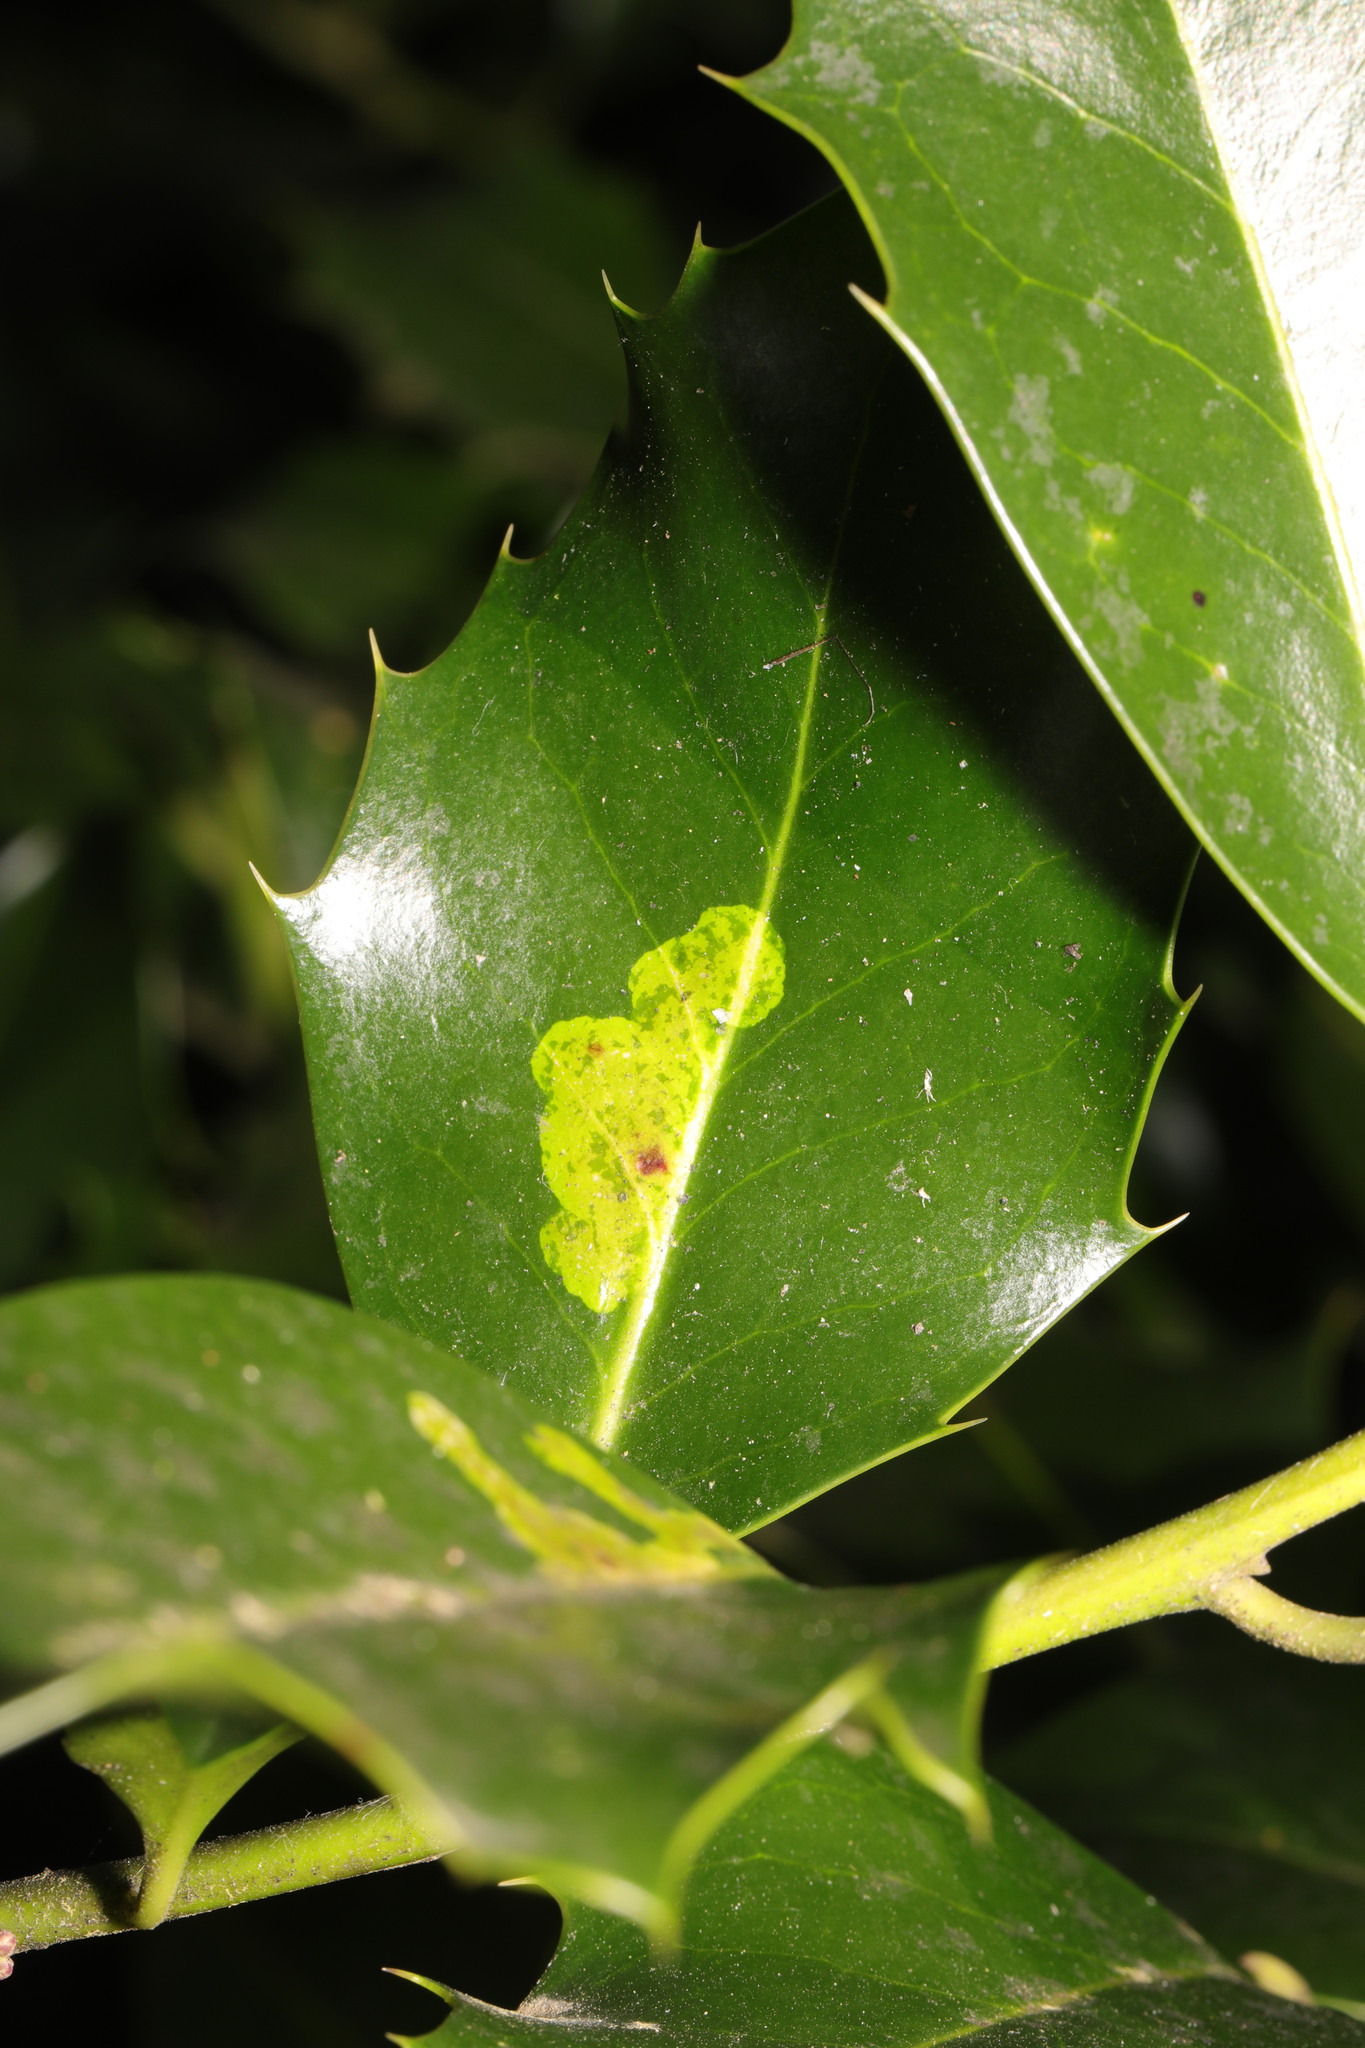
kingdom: Animalia
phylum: Arthropoda
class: Insecta
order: Diptera
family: Agromyzidae
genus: Phytomyza
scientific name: Phytomyza ilicis
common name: Holly leafminer
